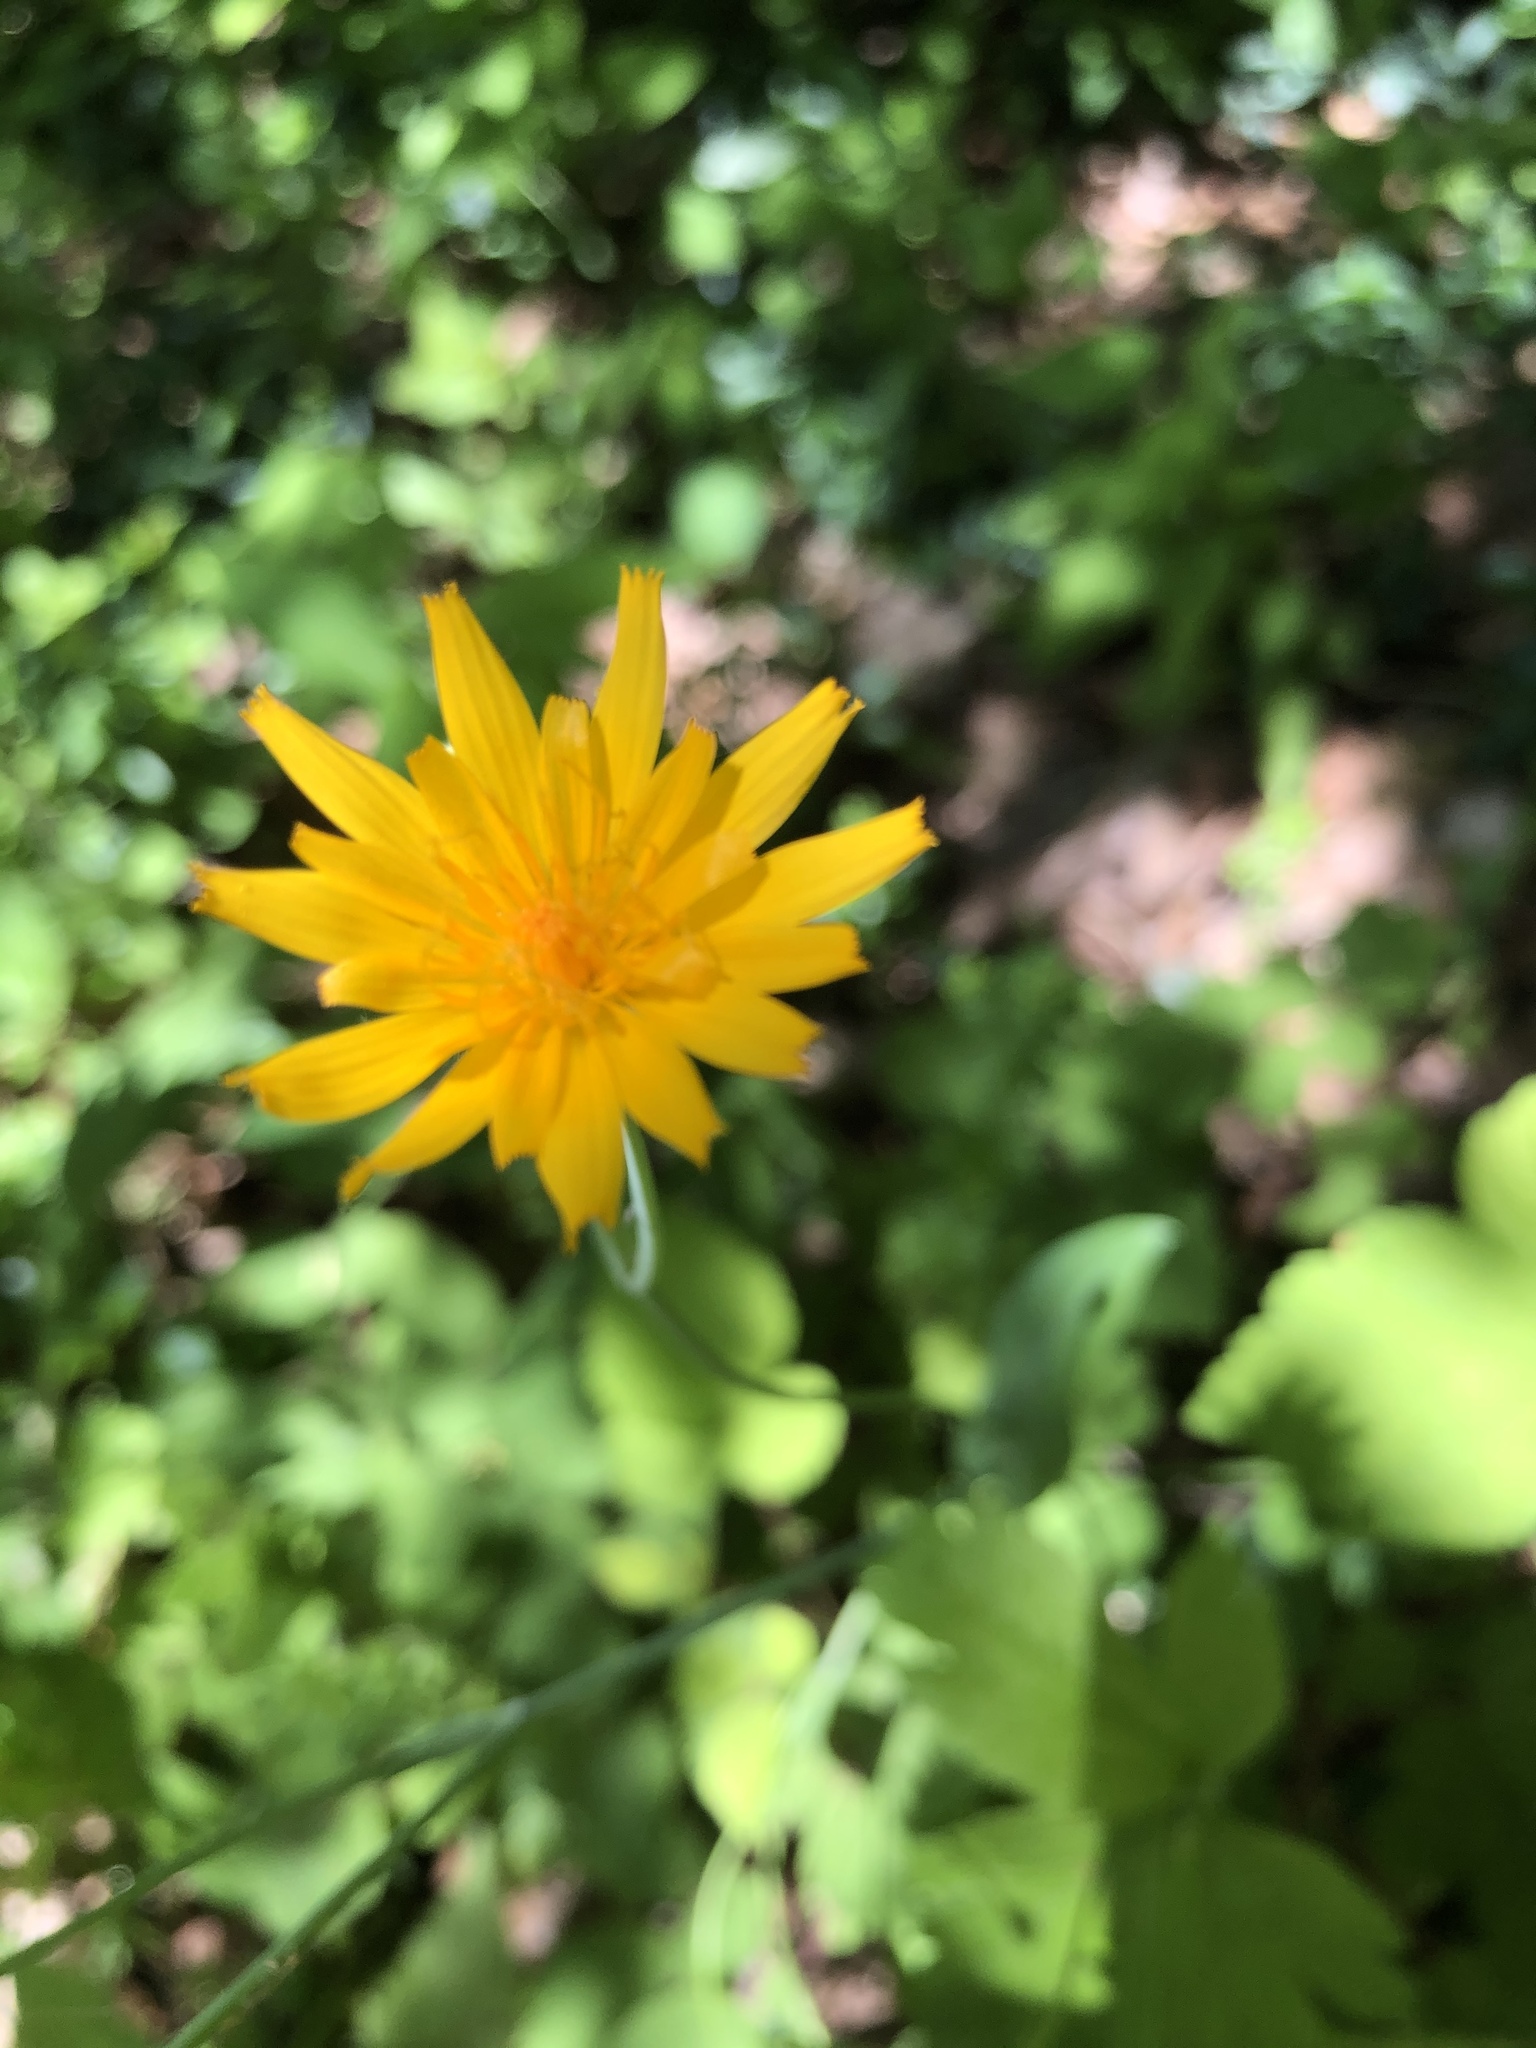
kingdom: Plantae
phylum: Tracheophyta
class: Magnoliopsida
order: Asterales
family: Asteraceae
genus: Krigia
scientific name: Krigia biflora
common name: Orange dwarf-dandelion
